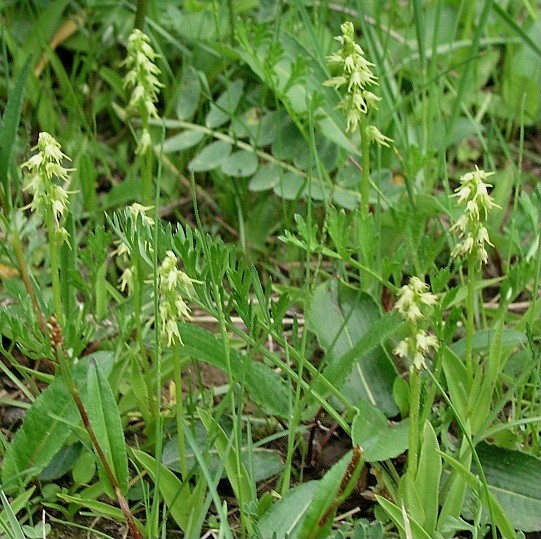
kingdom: Plantae
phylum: Tracheophyta
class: Liliopsida
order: Asparagales
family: Orchidaceae
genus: Herminium
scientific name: Herminium monorchis
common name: Musk orchid
